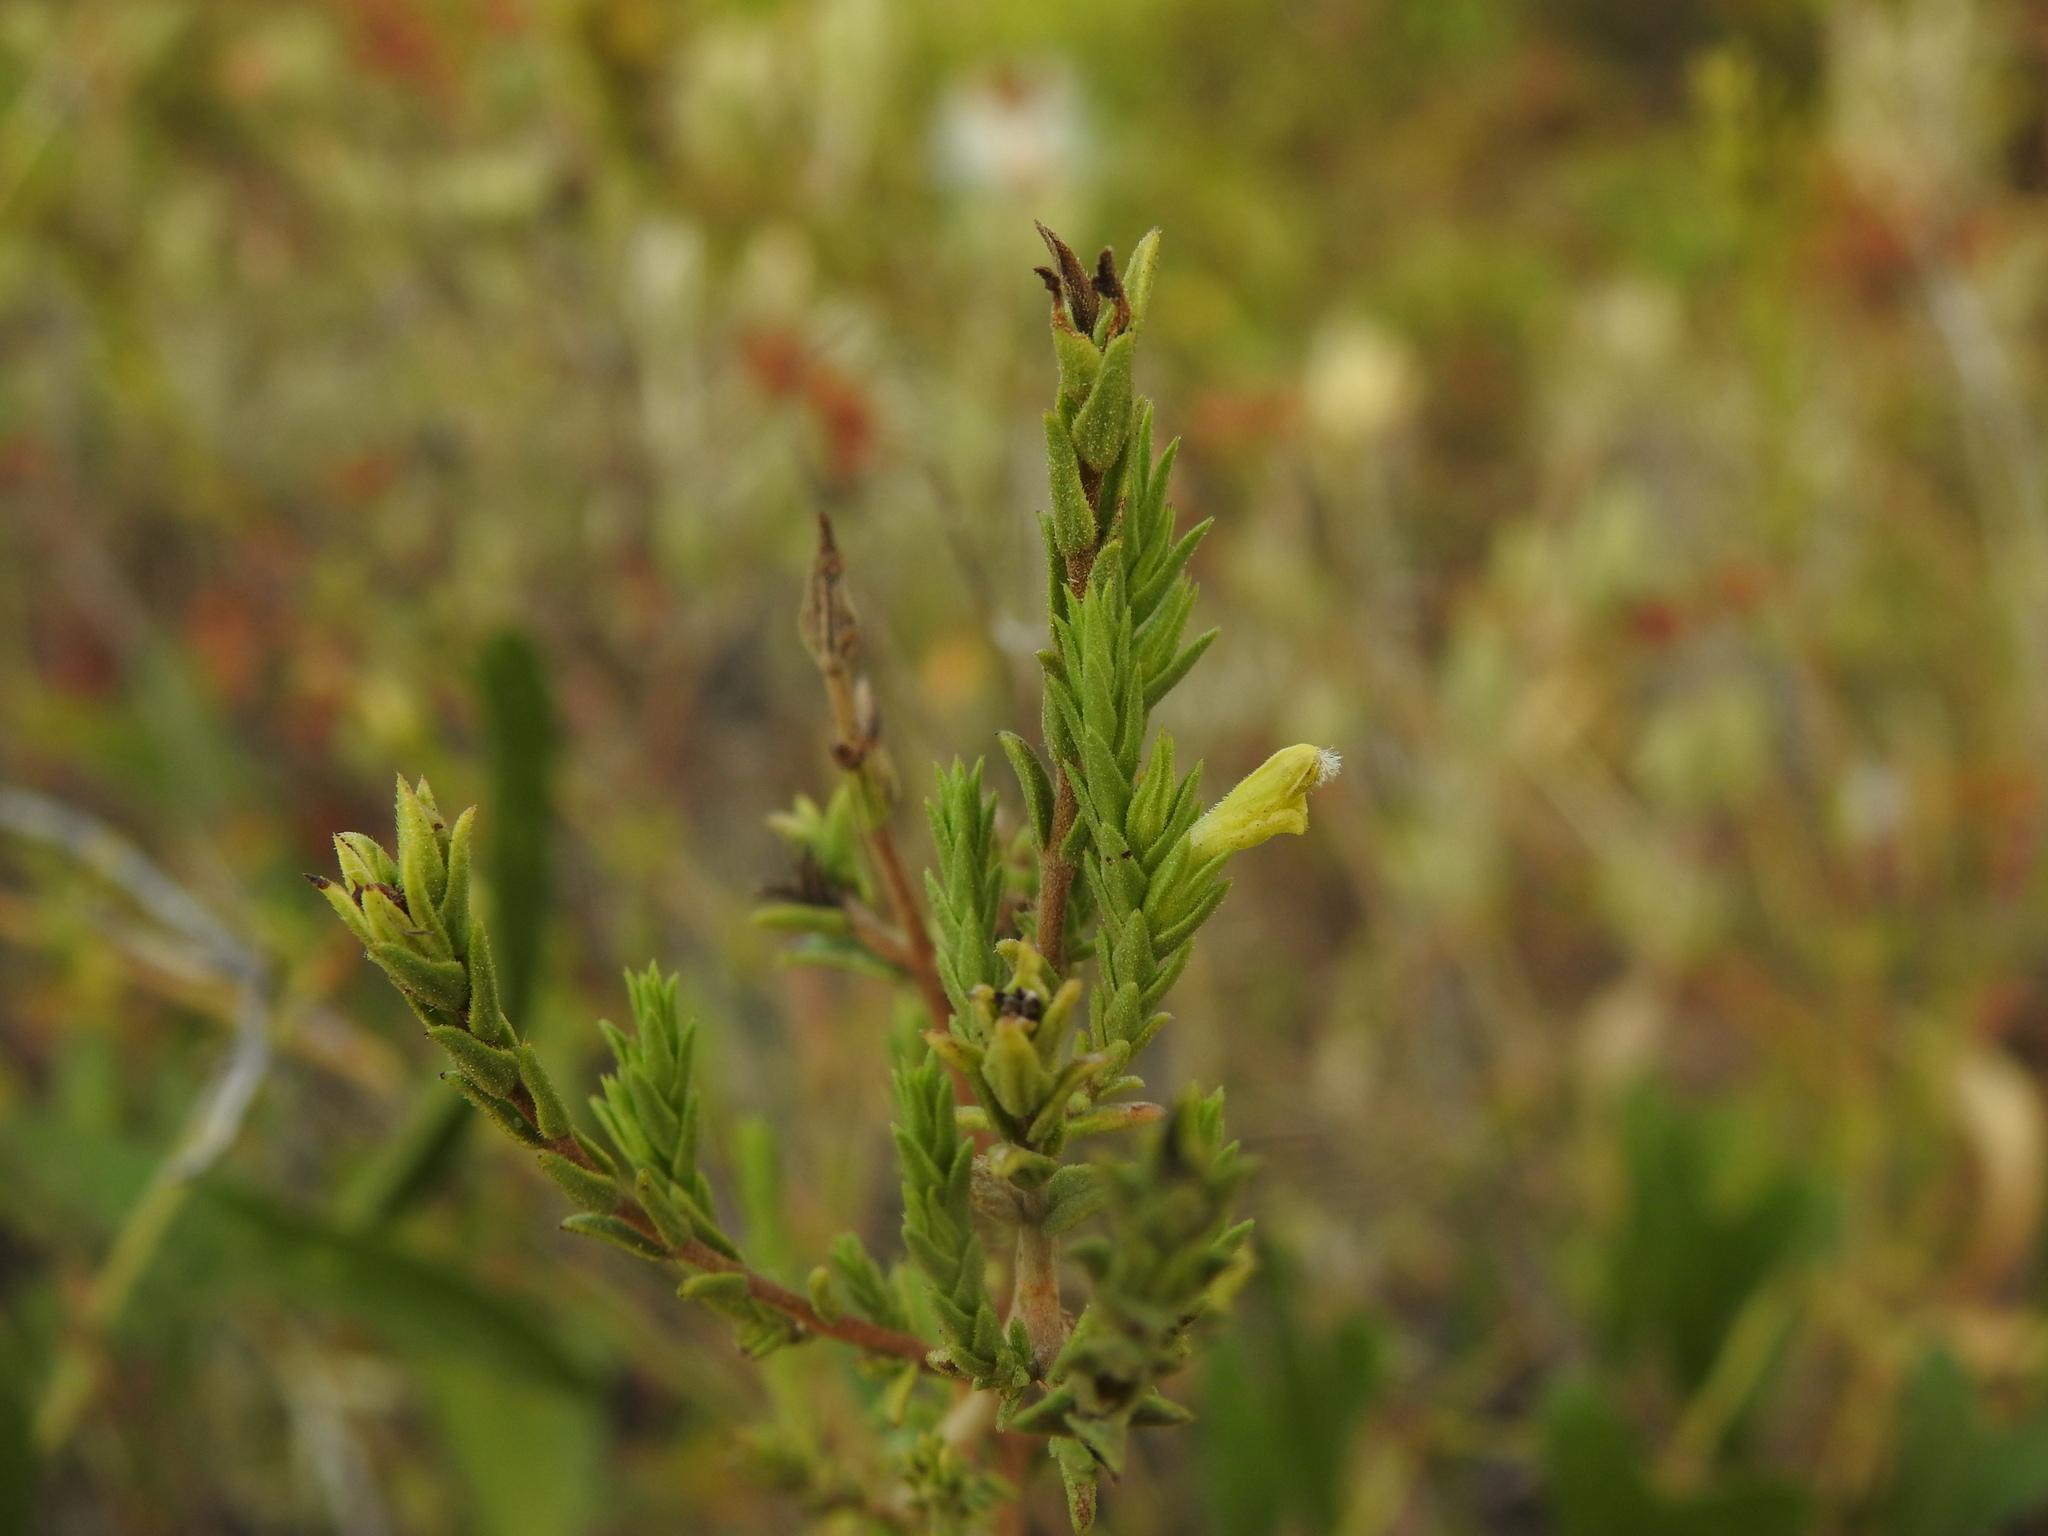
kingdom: Plantae
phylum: Tracheophyta
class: Magnoliopsida
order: Lamiales
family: Orobanchaceae
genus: Nothobartsia
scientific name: Nothobartsia asperrima
